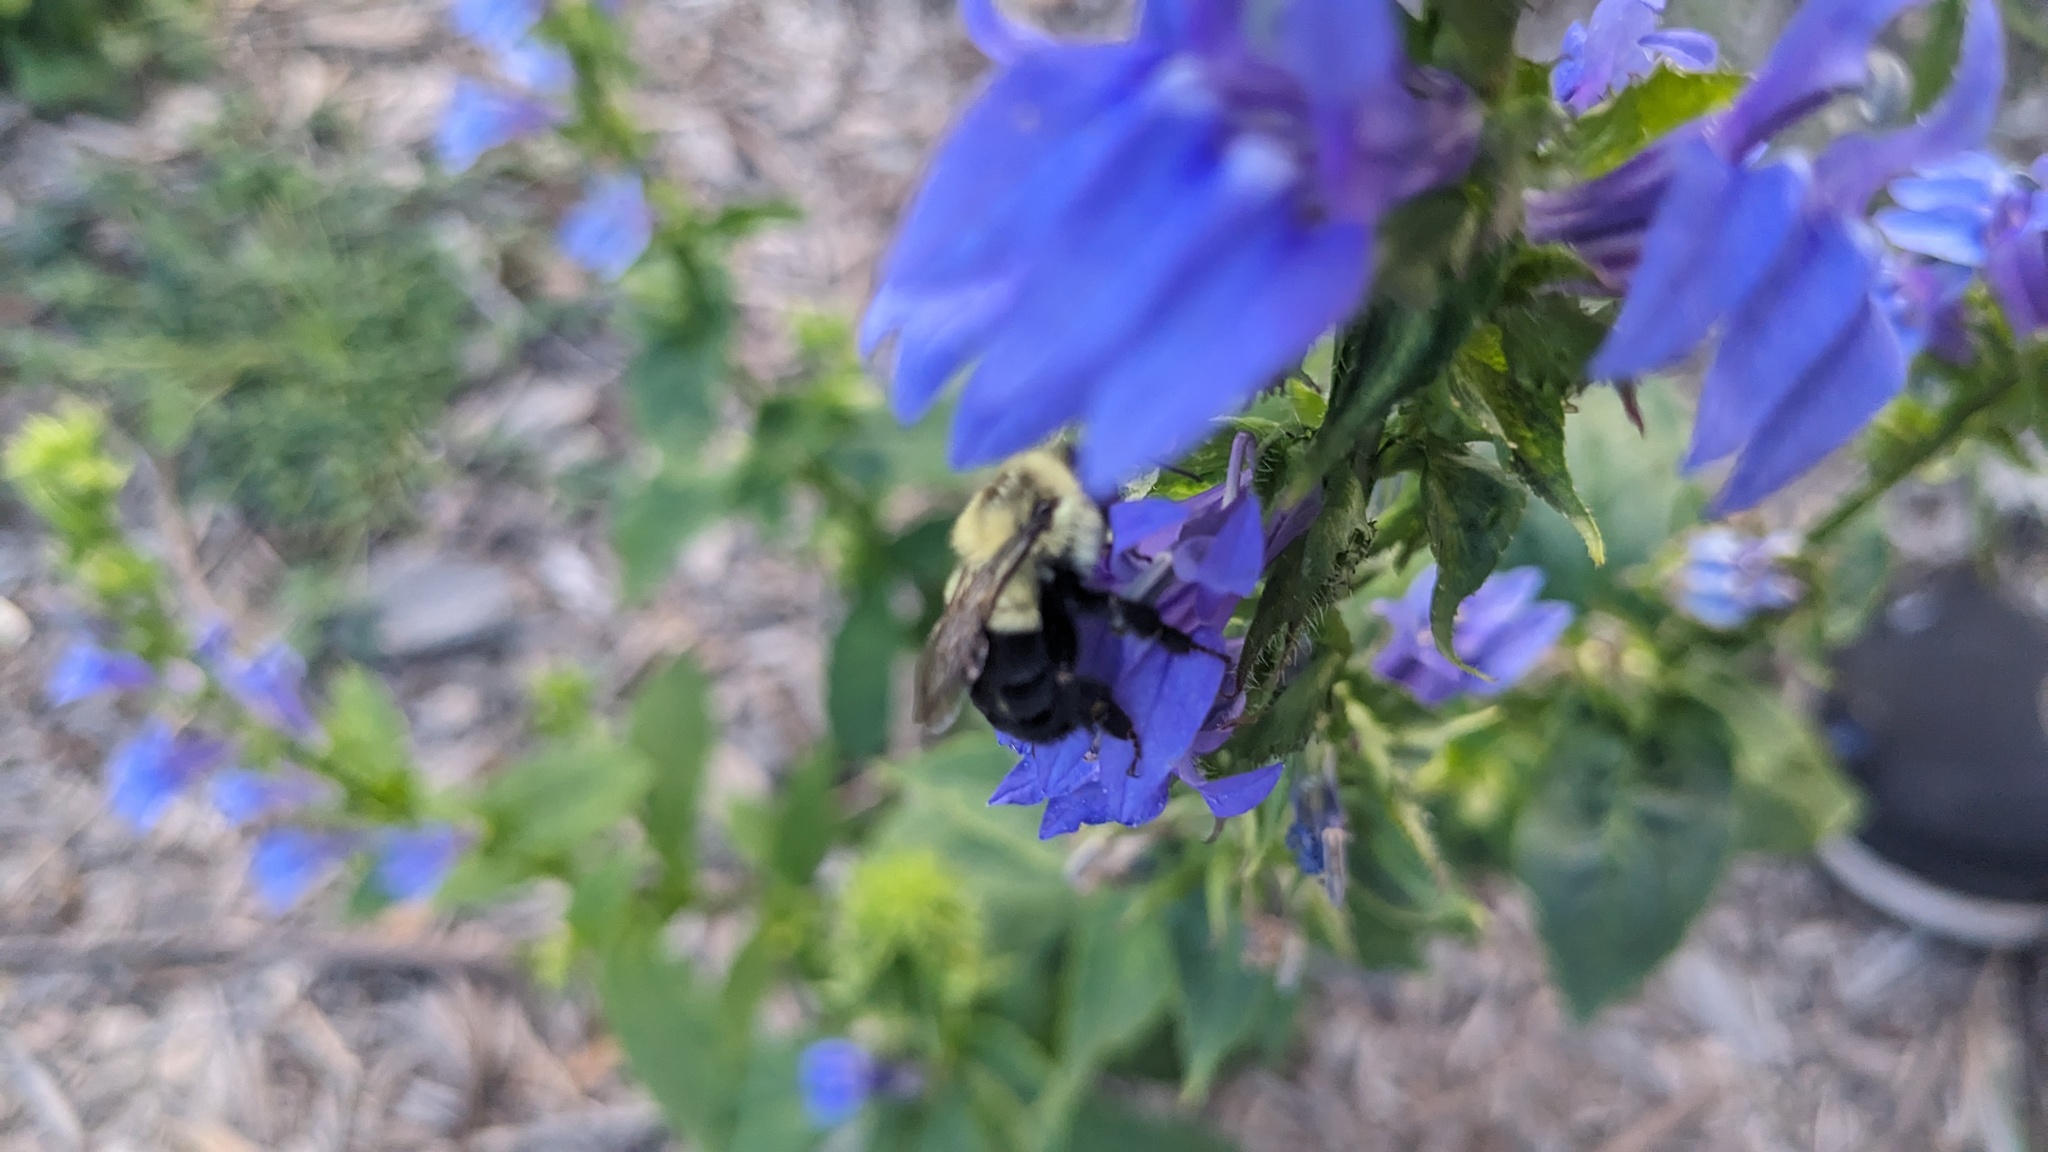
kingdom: Animalia
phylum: Arthropoda
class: Insecta
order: Hymenoptera
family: Apidae
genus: Bombus
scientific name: Bombus impatiens
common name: Common eastern bumble bee
